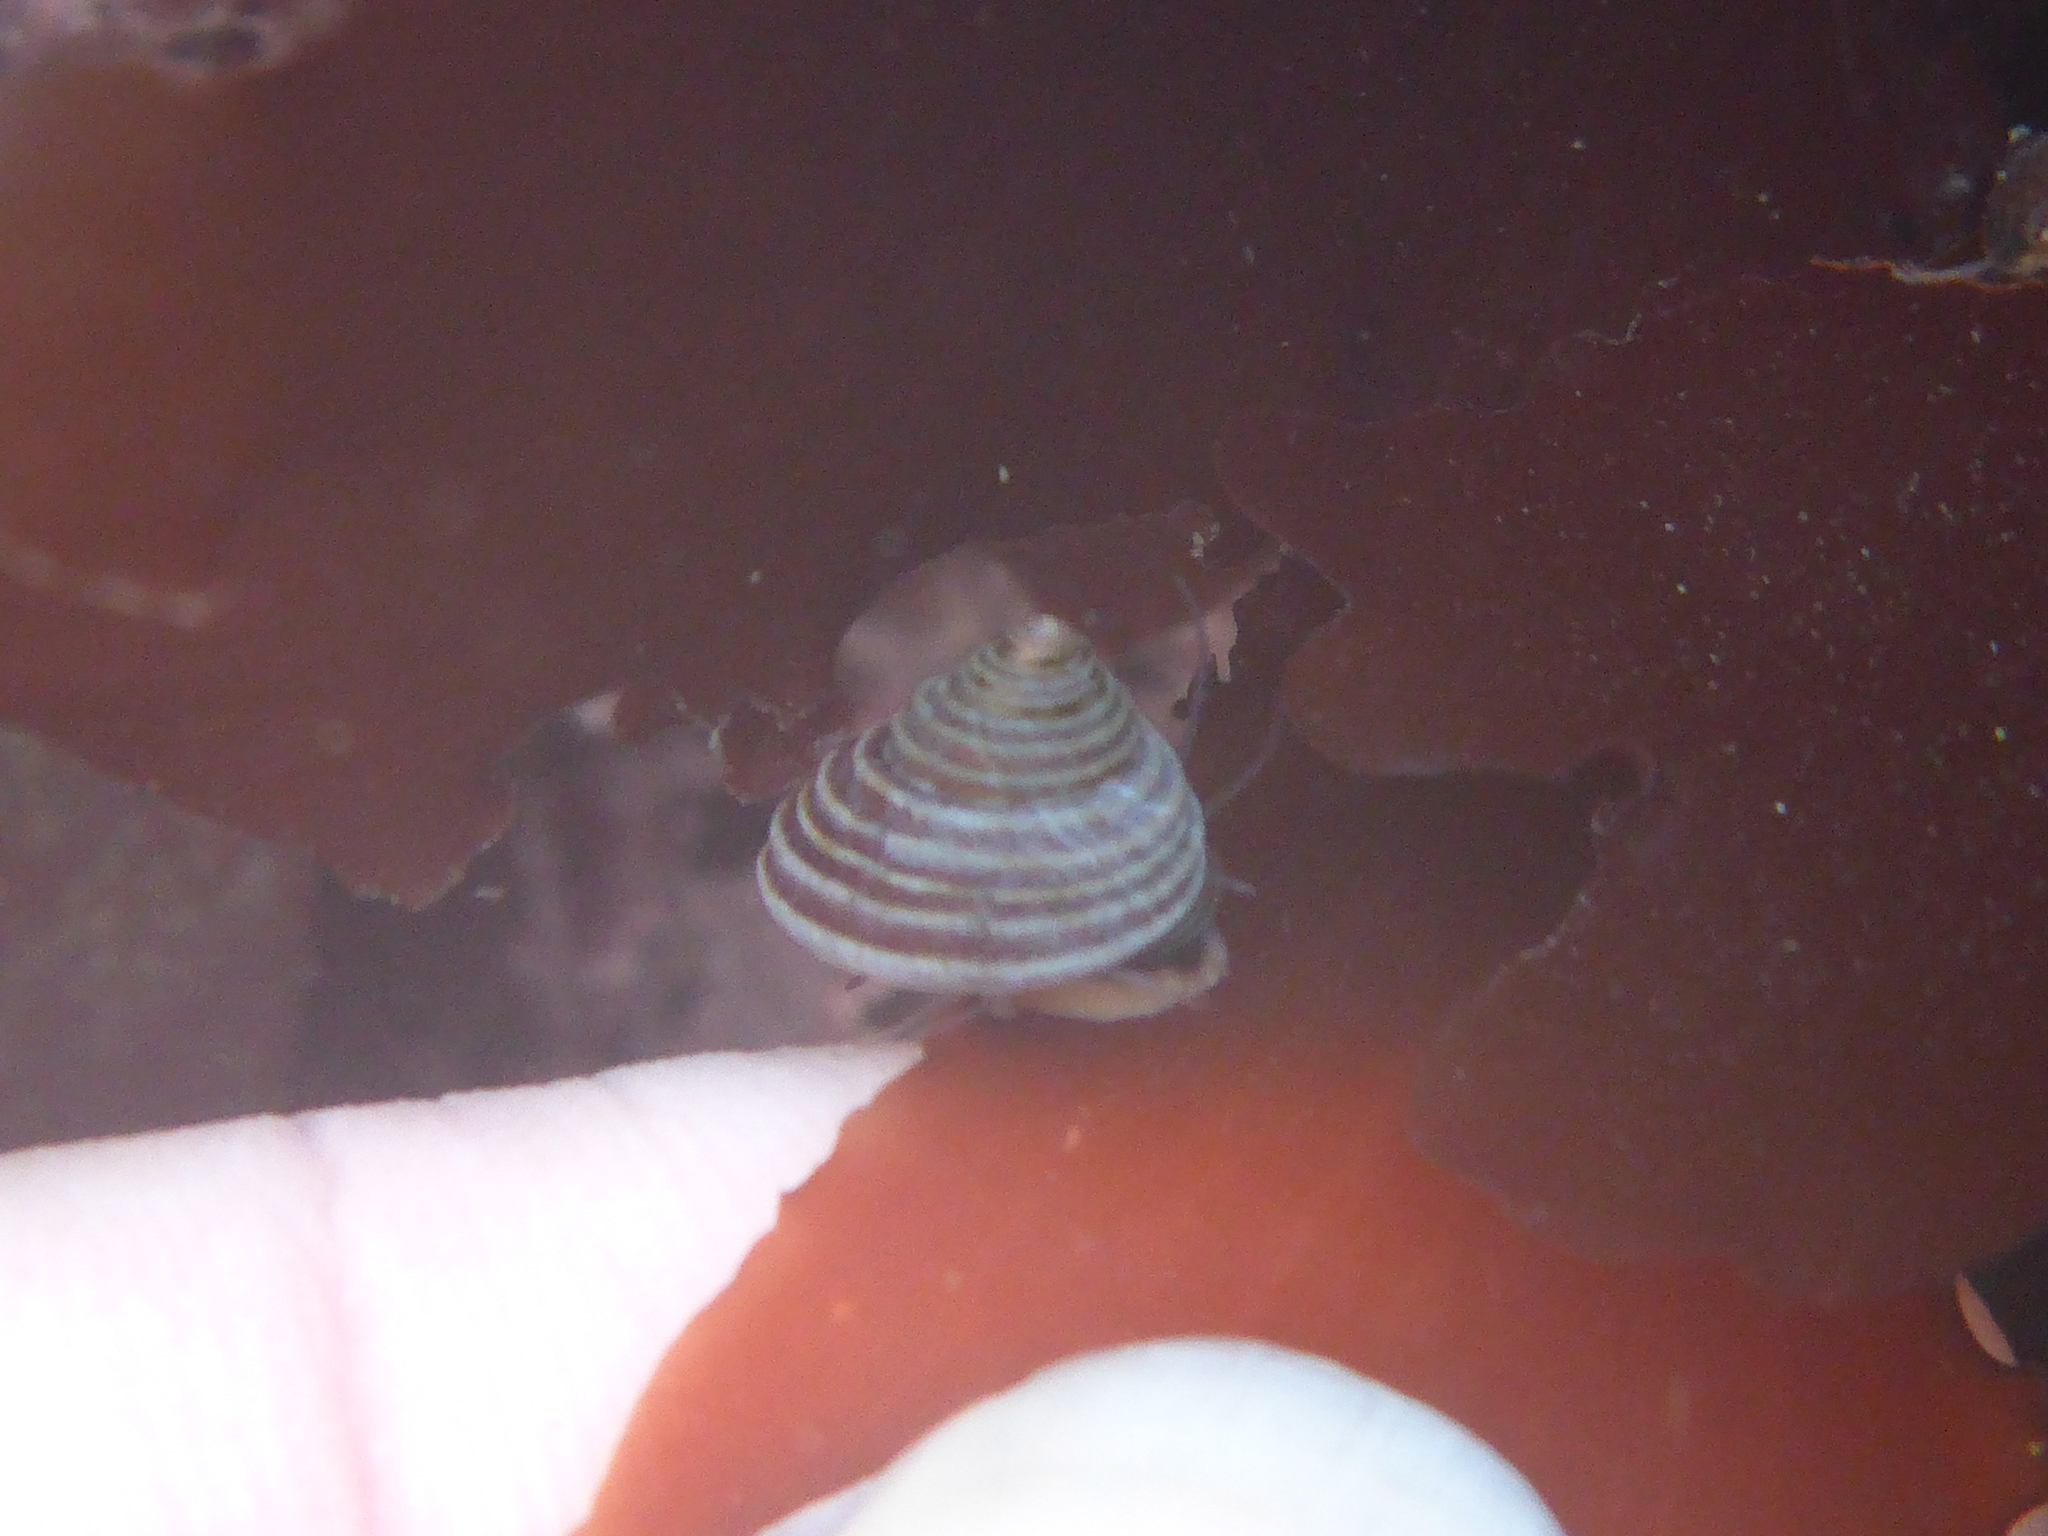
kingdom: Animalia
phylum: Mollusca
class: Gastropoda
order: Trochida
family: Calliostomatidae
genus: Calliostoma
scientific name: Calliostoma ligatum
